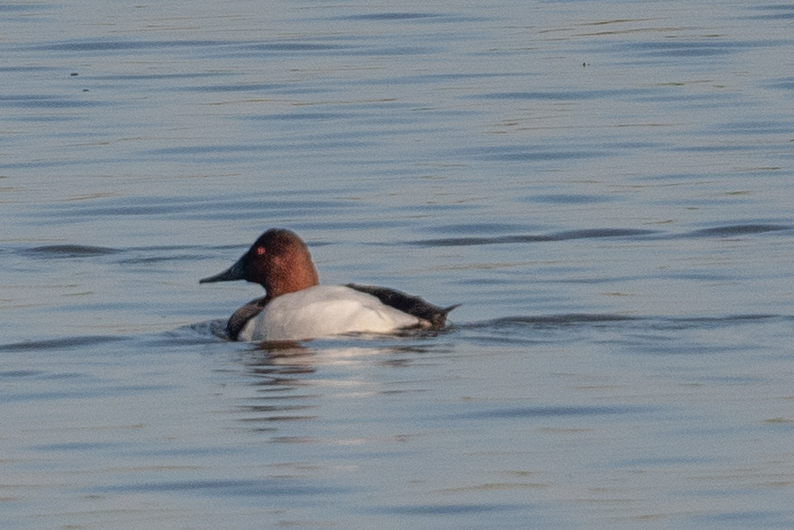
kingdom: Animalia
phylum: Chordata
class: Aves
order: Anseriformes
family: Anatidae
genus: Aythya
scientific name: Aythya valisineria
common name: Canvasback
